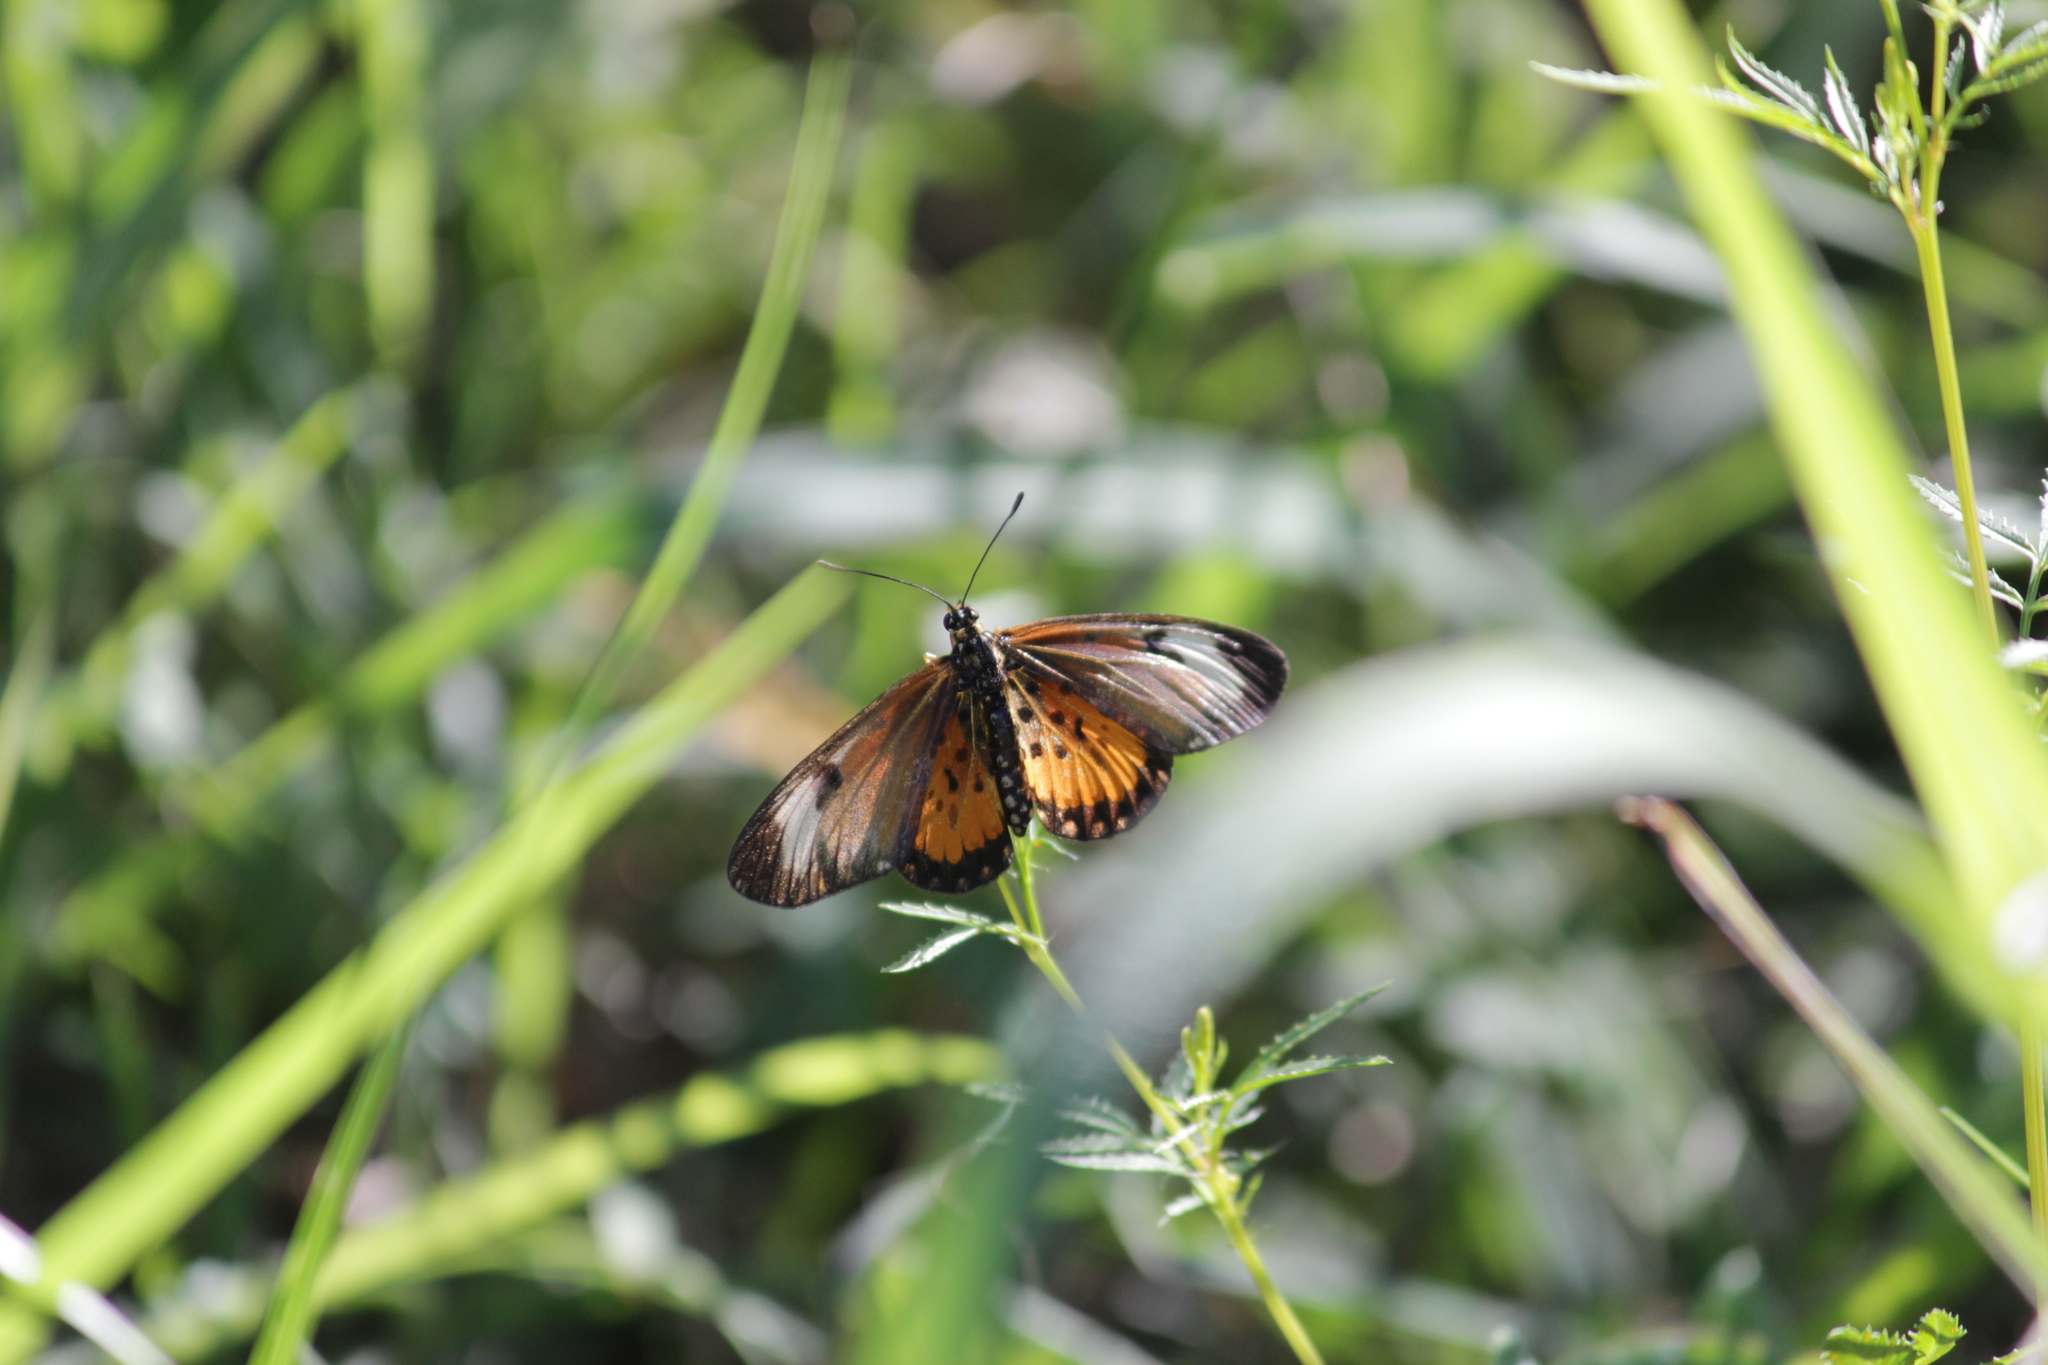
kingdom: Animalia
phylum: Arthropoda
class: Insecta
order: Lepidoptera
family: Nymphalidae
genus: Acraea
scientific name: Acraea Telchinia serena
